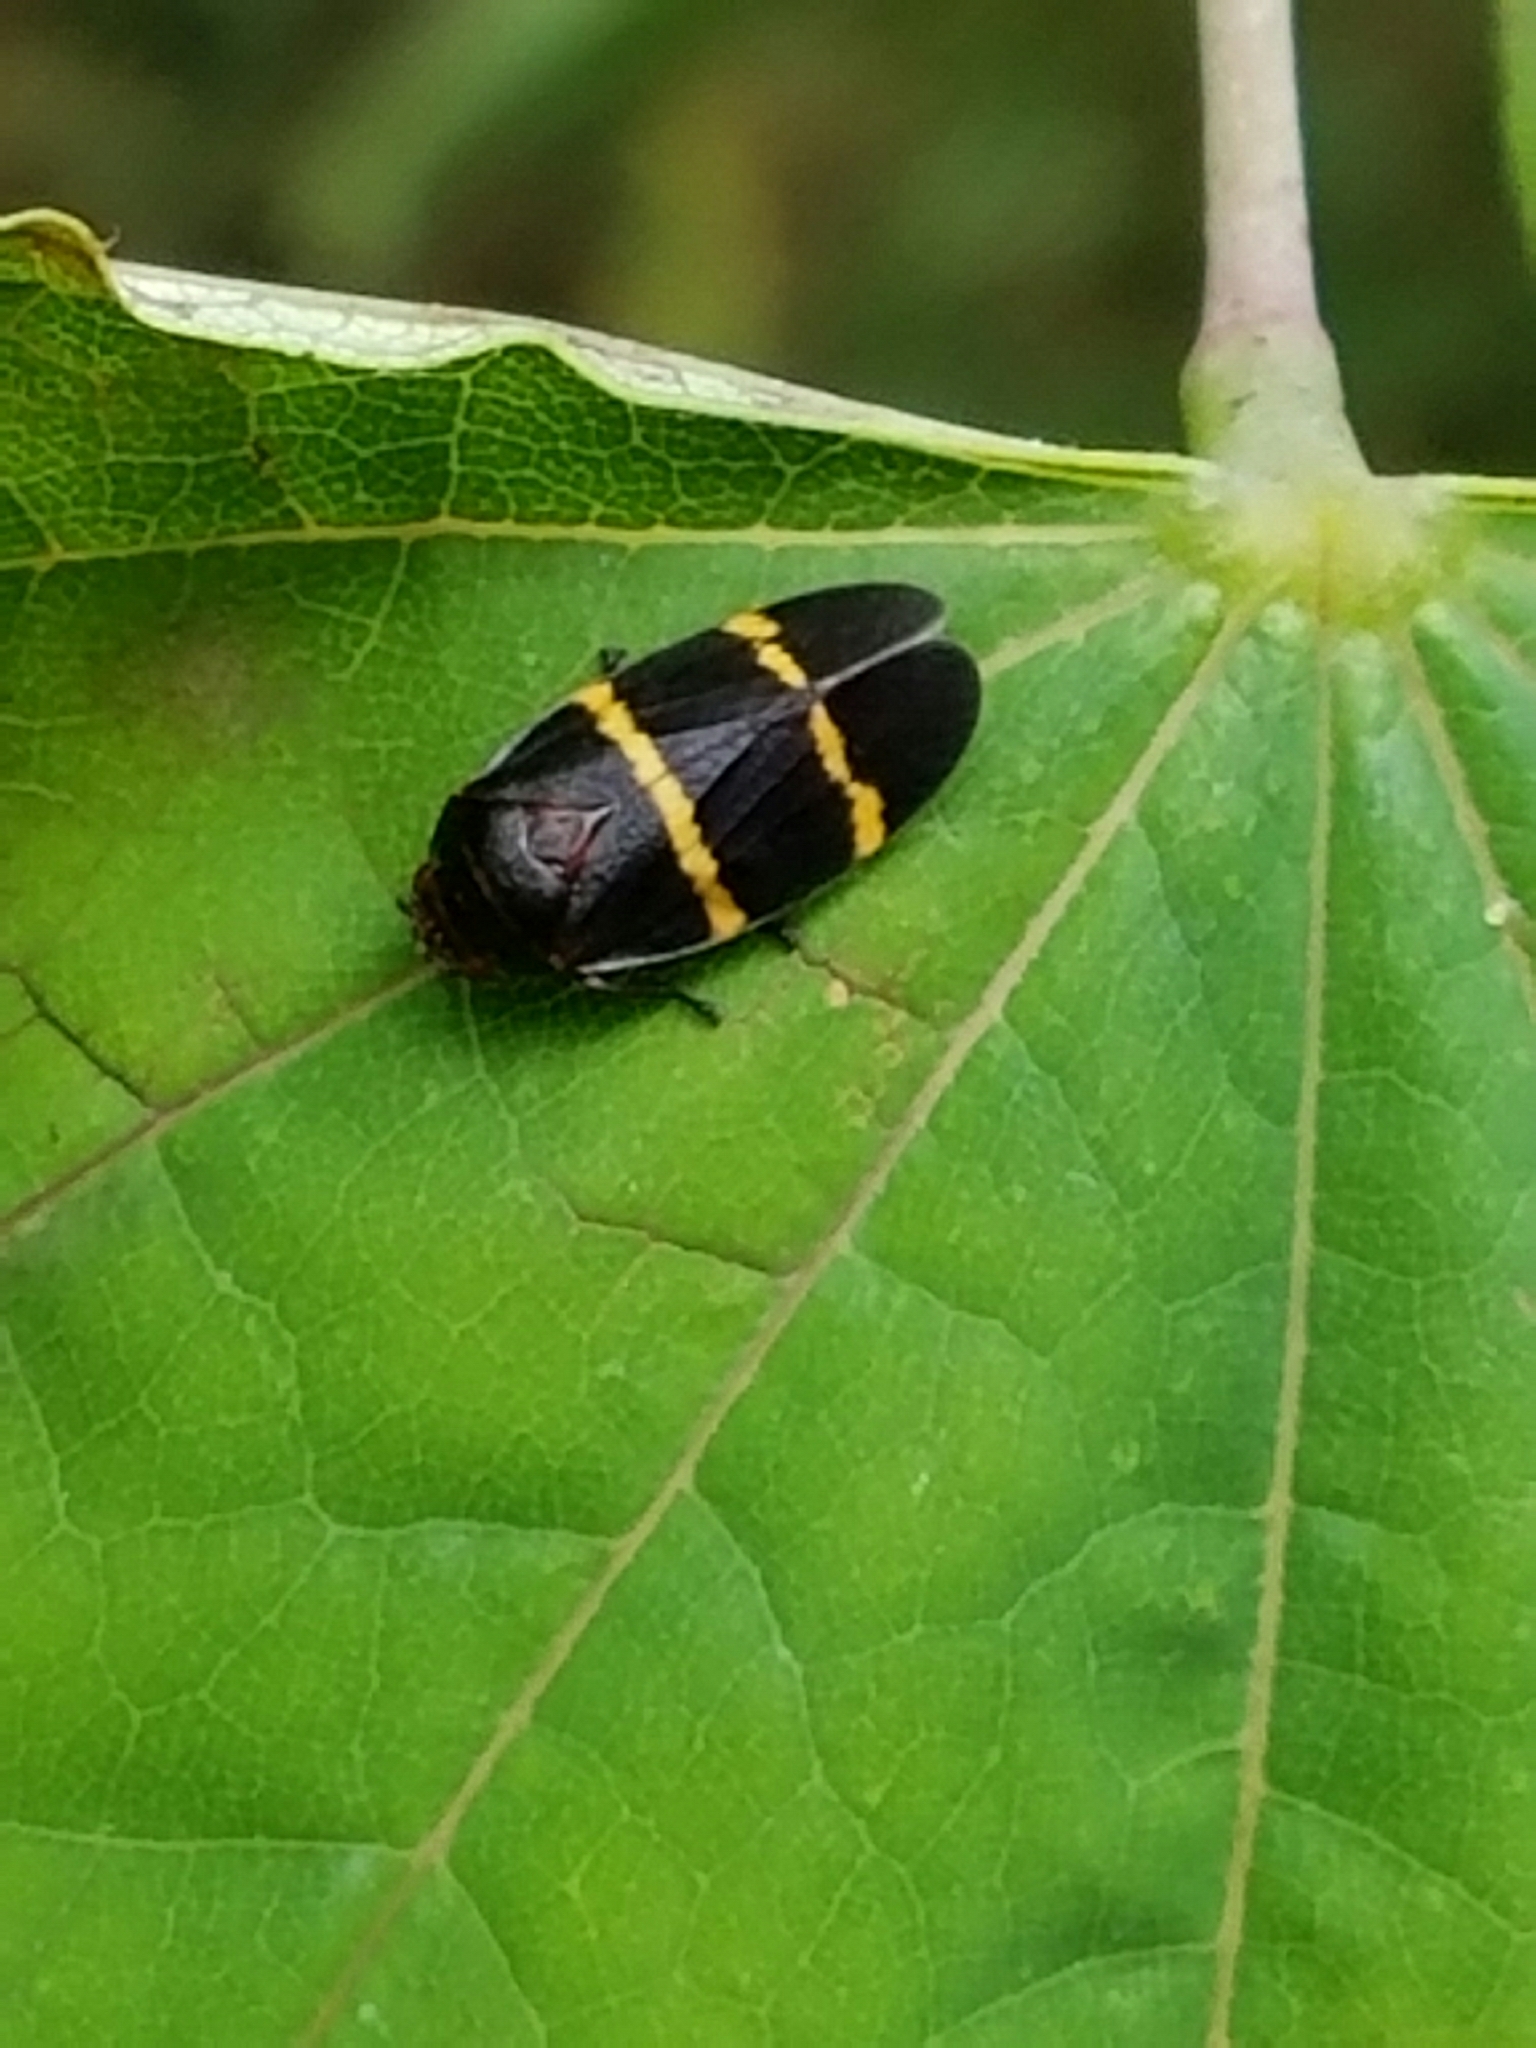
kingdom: Animalia
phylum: Arthropoda
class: Insecta
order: Hemiptera
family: Cercopidae
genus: Prosapia
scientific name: Prosapia bicincta
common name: Twolined spittlebug
